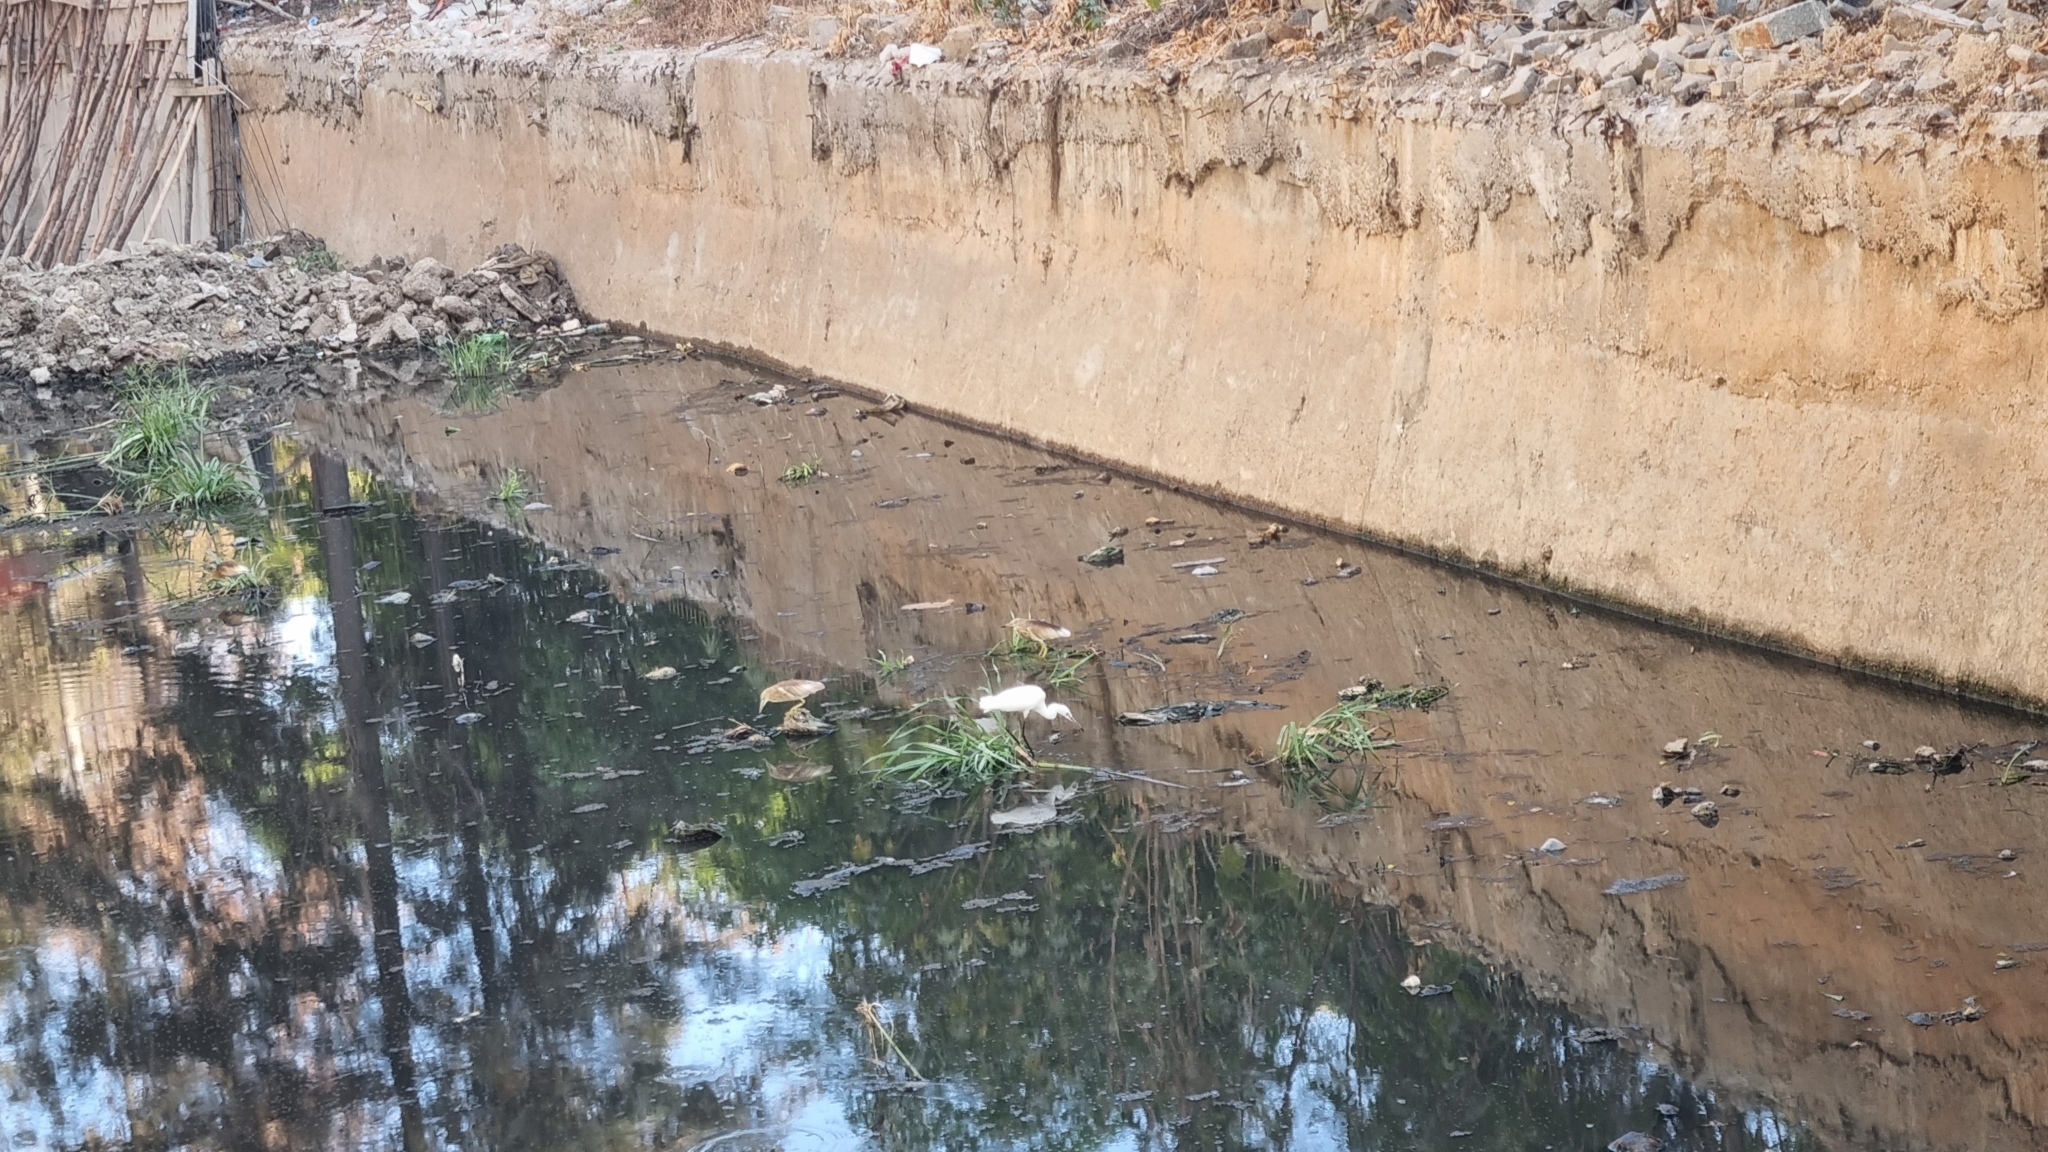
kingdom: Animalia
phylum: Chordata
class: Aves
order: Pelecaniformes
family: Ardeidae
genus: Ardeola
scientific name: Ardeola grayii
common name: Indian pond heron
